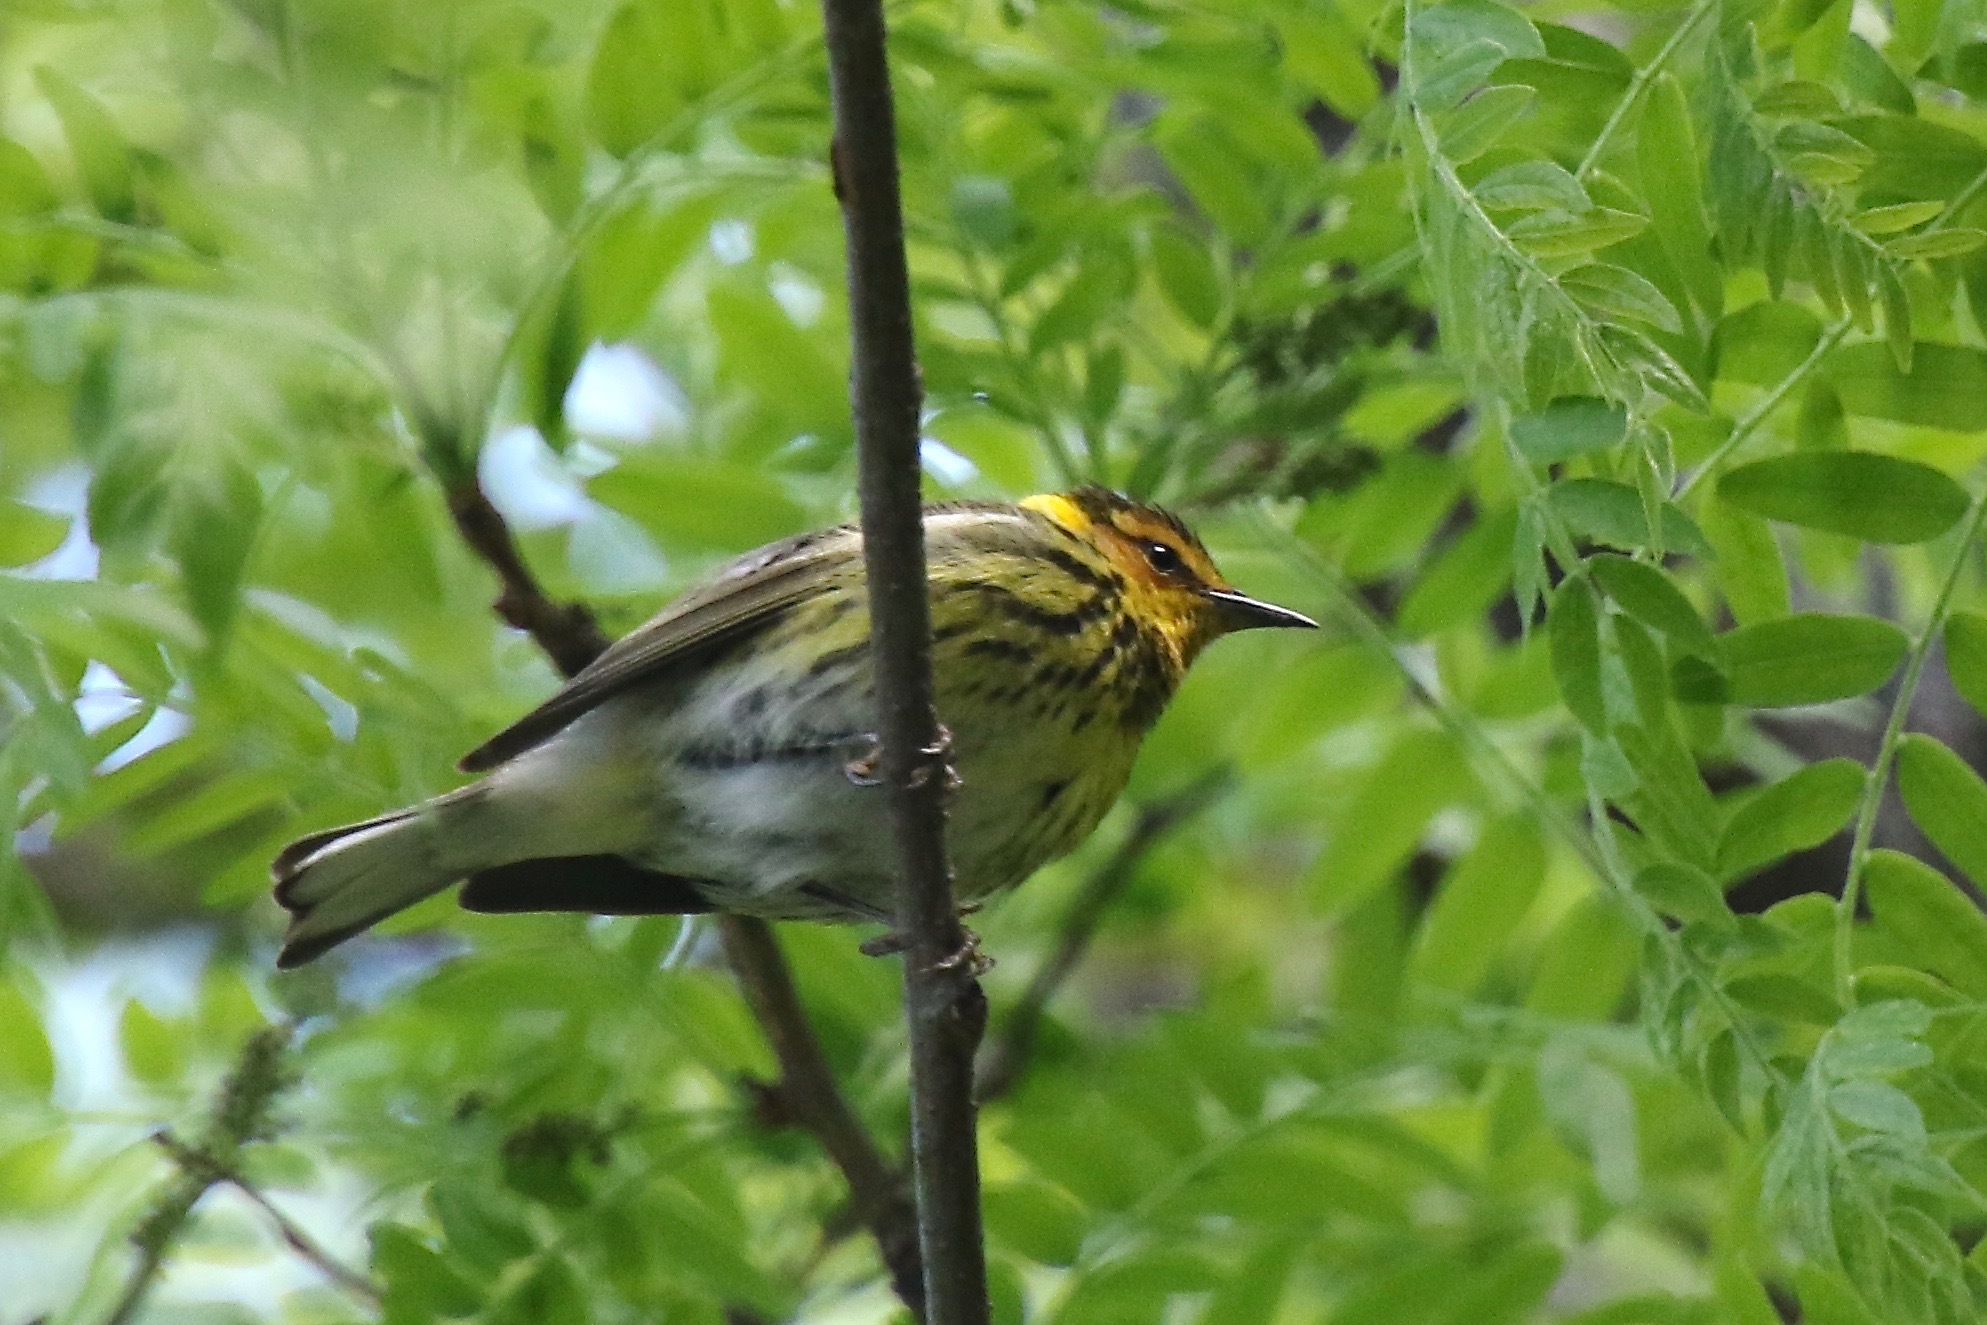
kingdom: Animalia
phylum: Chordata
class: Aves
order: Passeriformes
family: Parulidae
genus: Setophaga
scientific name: Setophaga tigrina
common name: Cape may warbler
